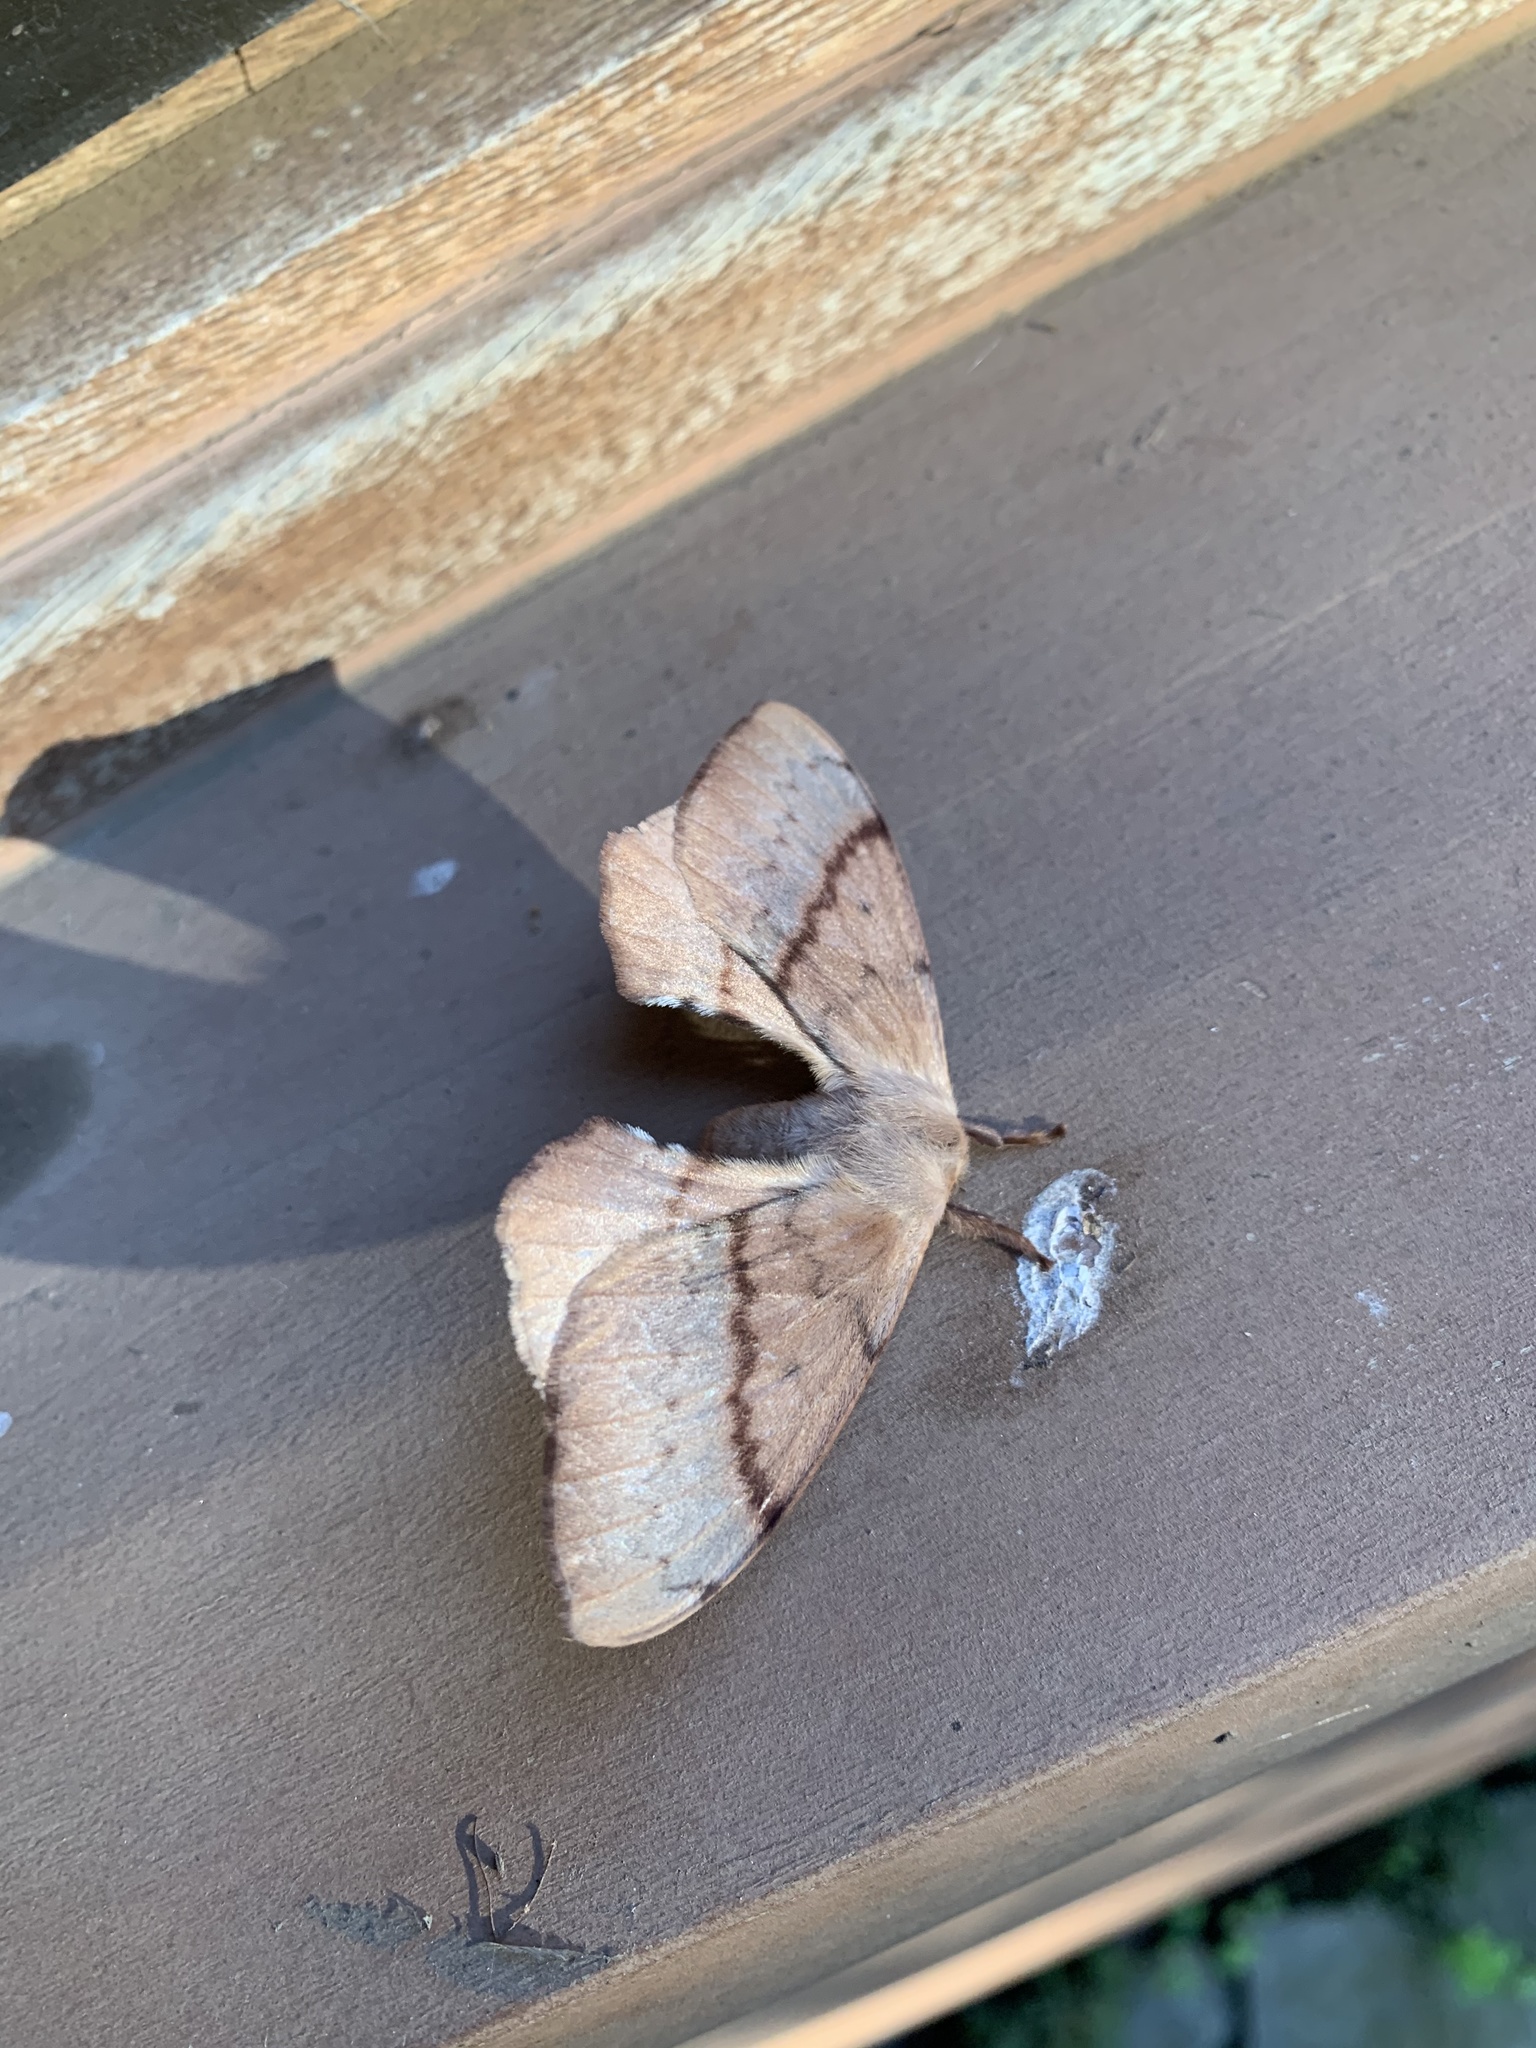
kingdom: Animalia
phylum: Arthropoda
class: Insecta
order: Lepidoptera
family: Saturniidae
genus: Cercophana
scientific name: Cercophana frauenfeldi
